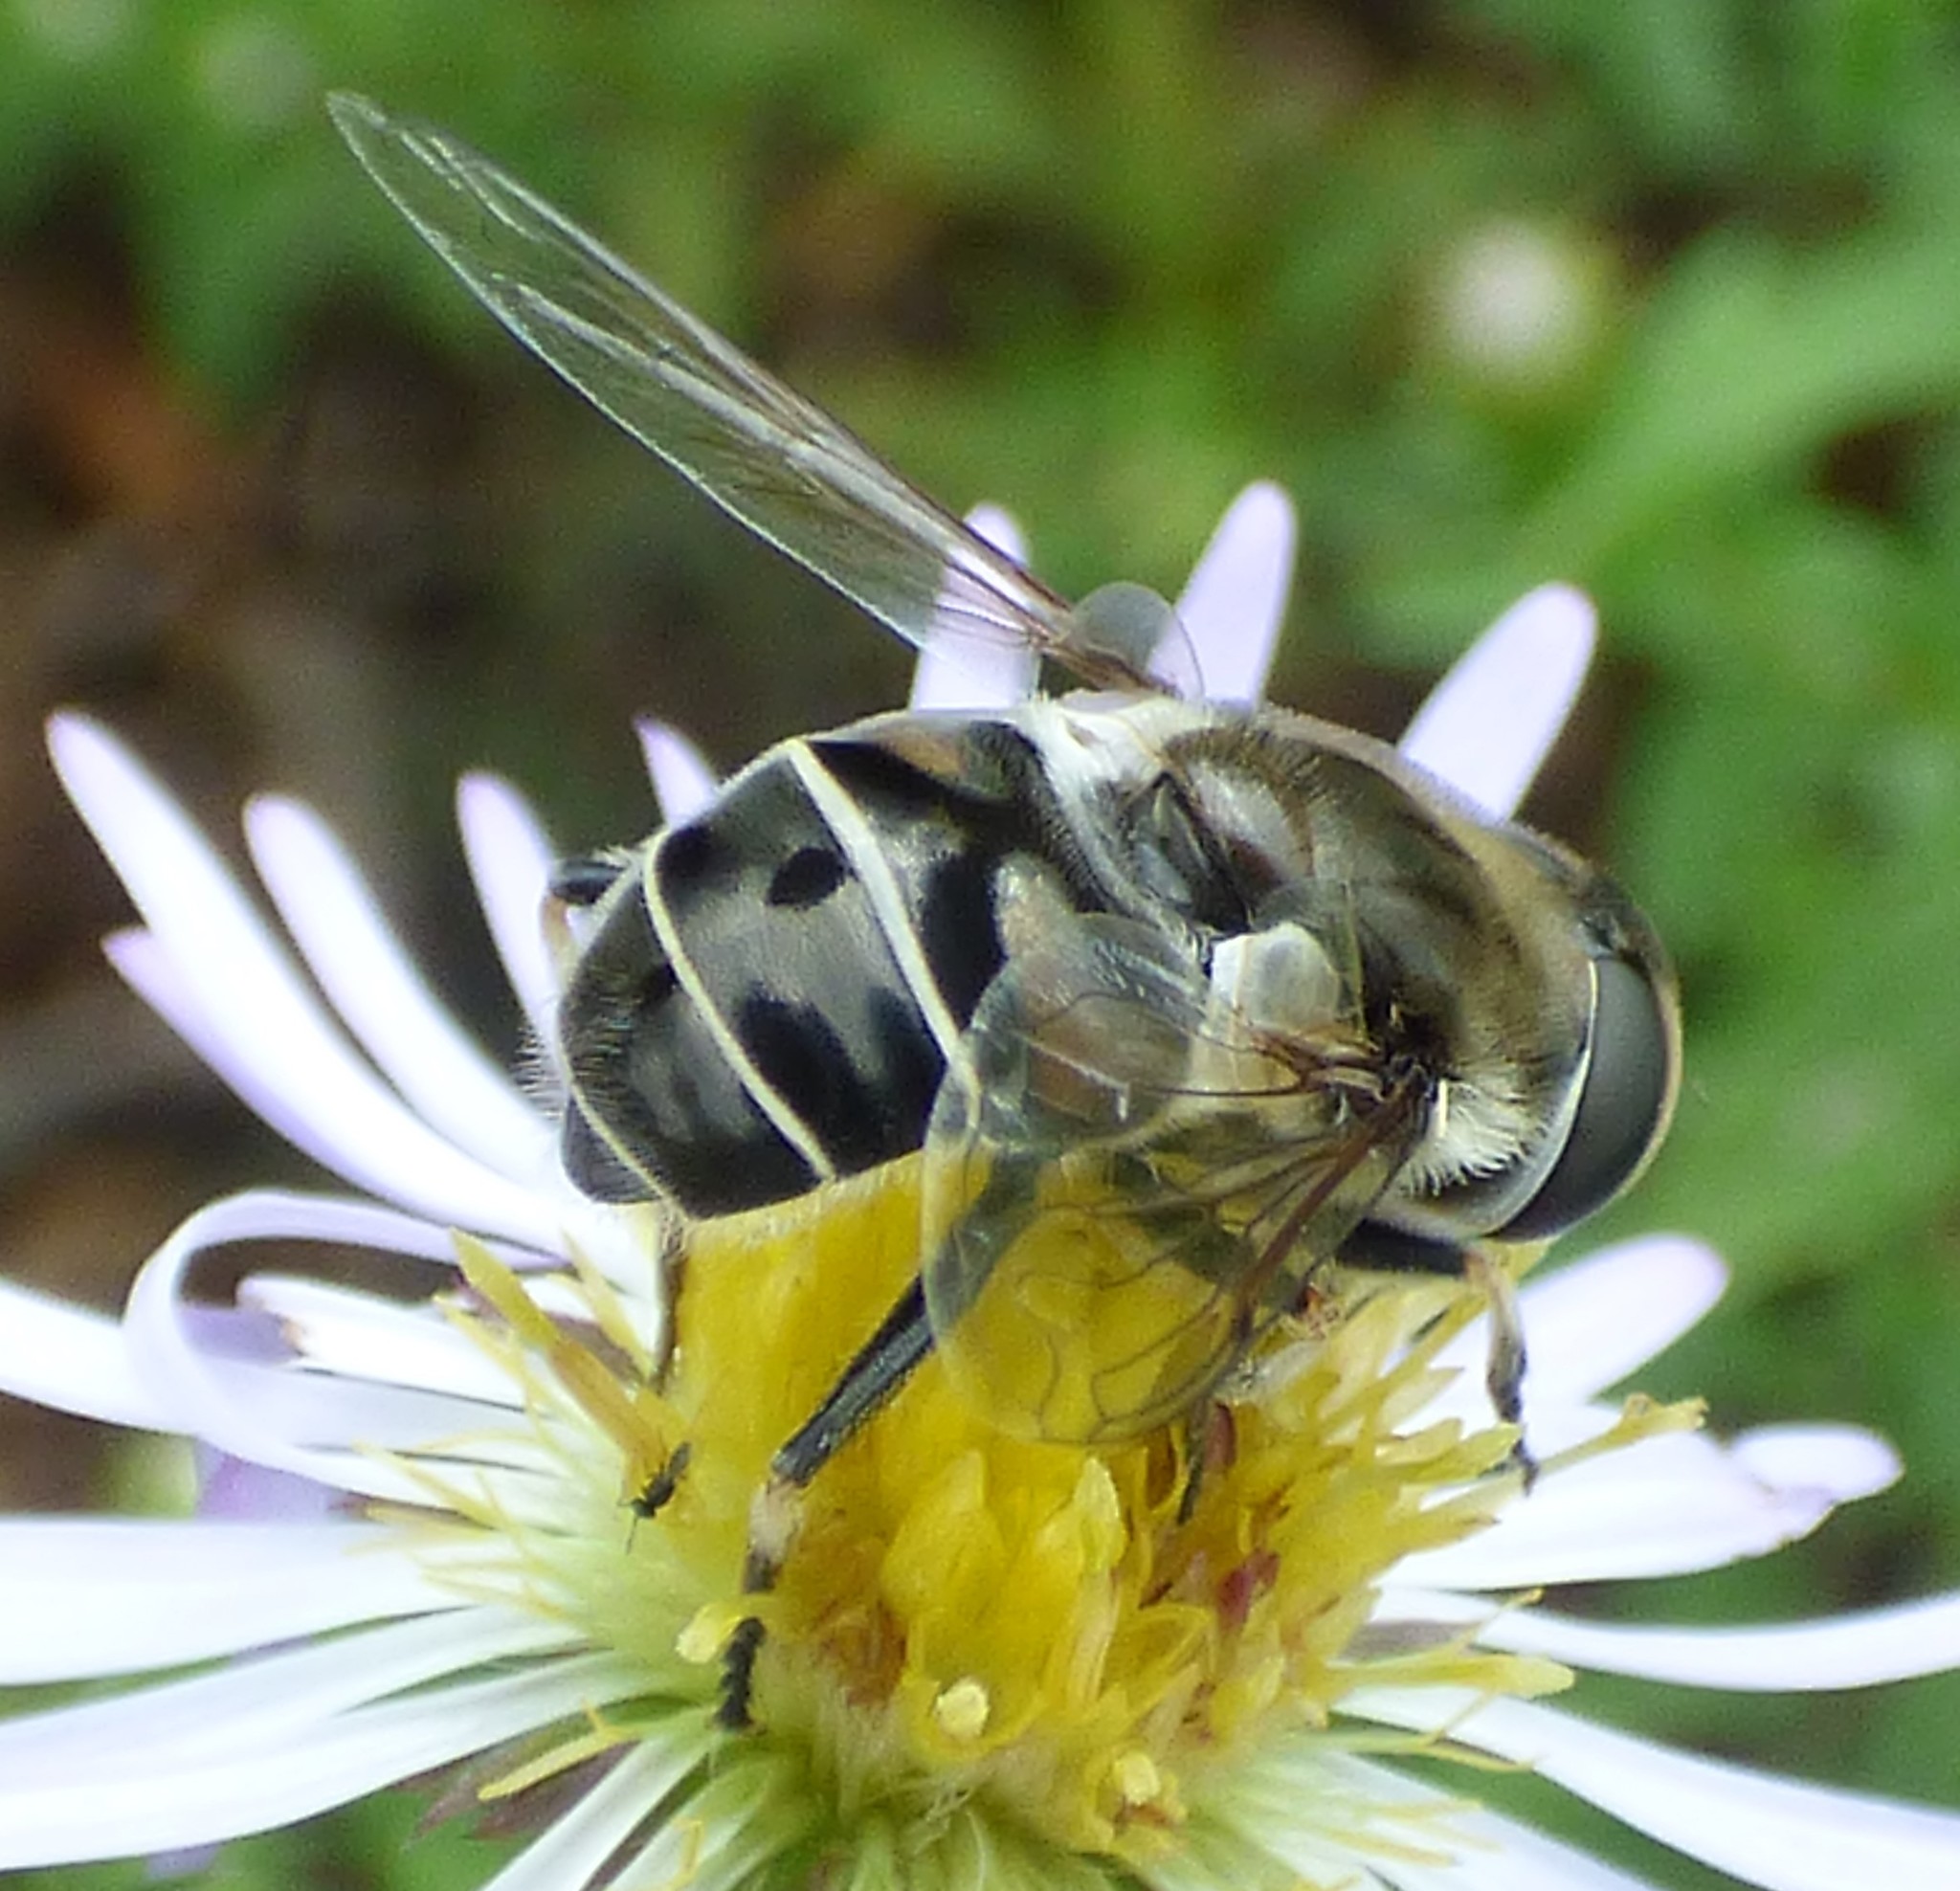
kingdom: Animalia
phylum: Arthropoda
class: Insecta
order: Diptera
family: Syrphidae
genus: Eristalis
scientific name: Eristalis dimidiata
